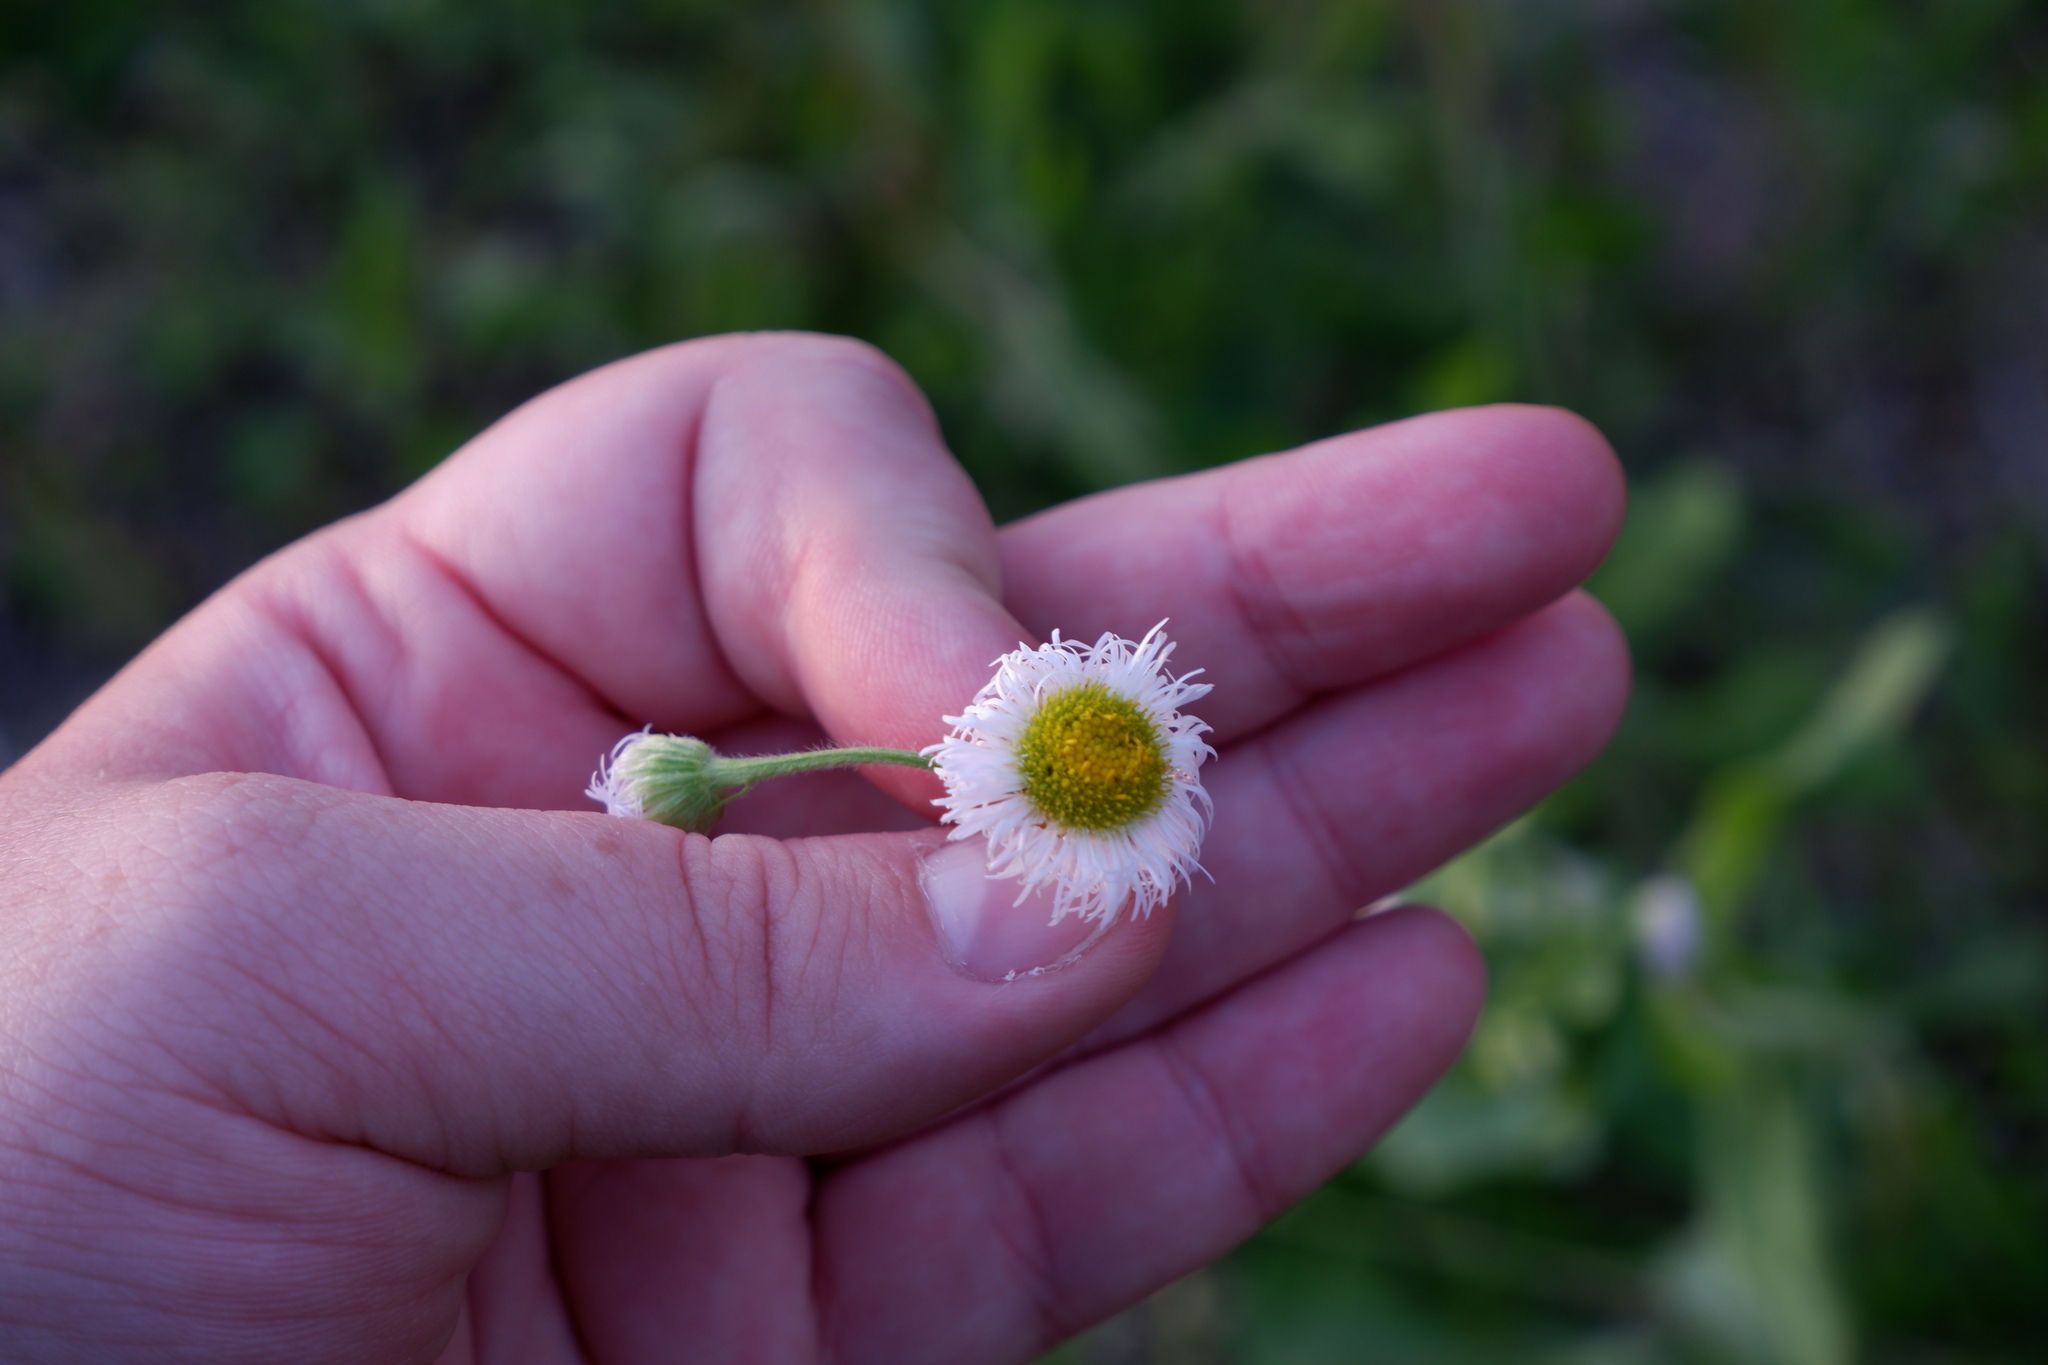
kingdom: Plantae
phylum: Tracheophyta
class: Magnoliopsida
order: Asterales
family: Asteraceae
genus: Erigeron
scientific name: Erigeron philadelphicus
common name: Robin's-plantain
